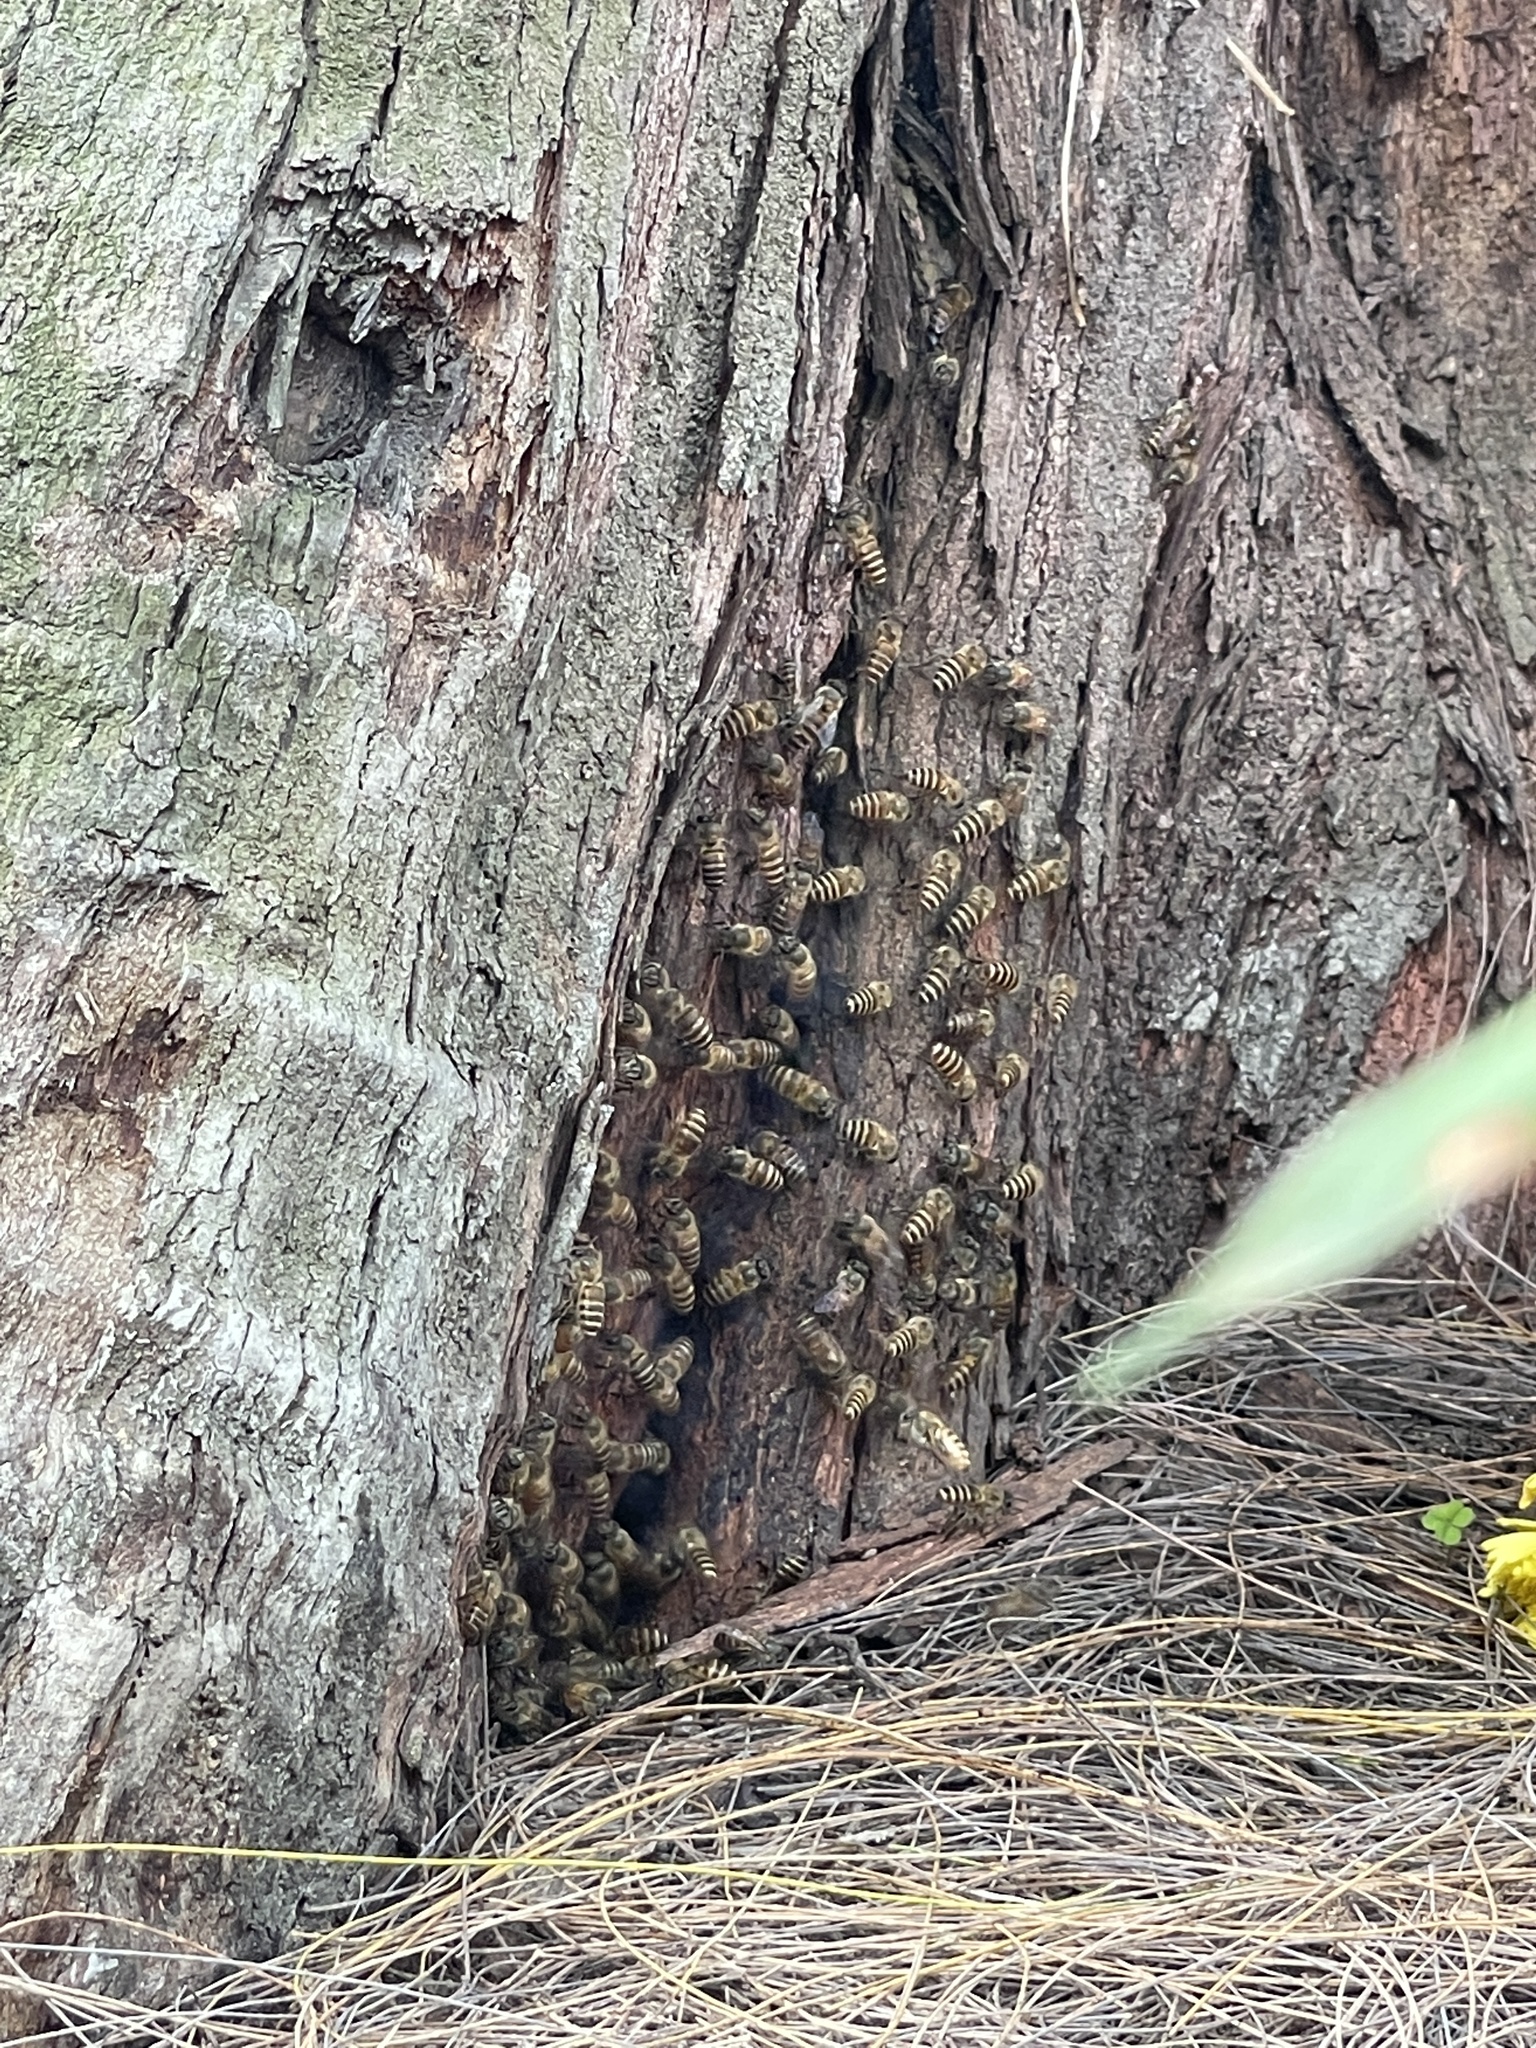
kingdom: Animalia
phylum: Arthropoda
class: Insecta
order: Hymenoptera
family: Apidae
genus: Apis
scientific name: Apis cerana
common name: Honey bee
